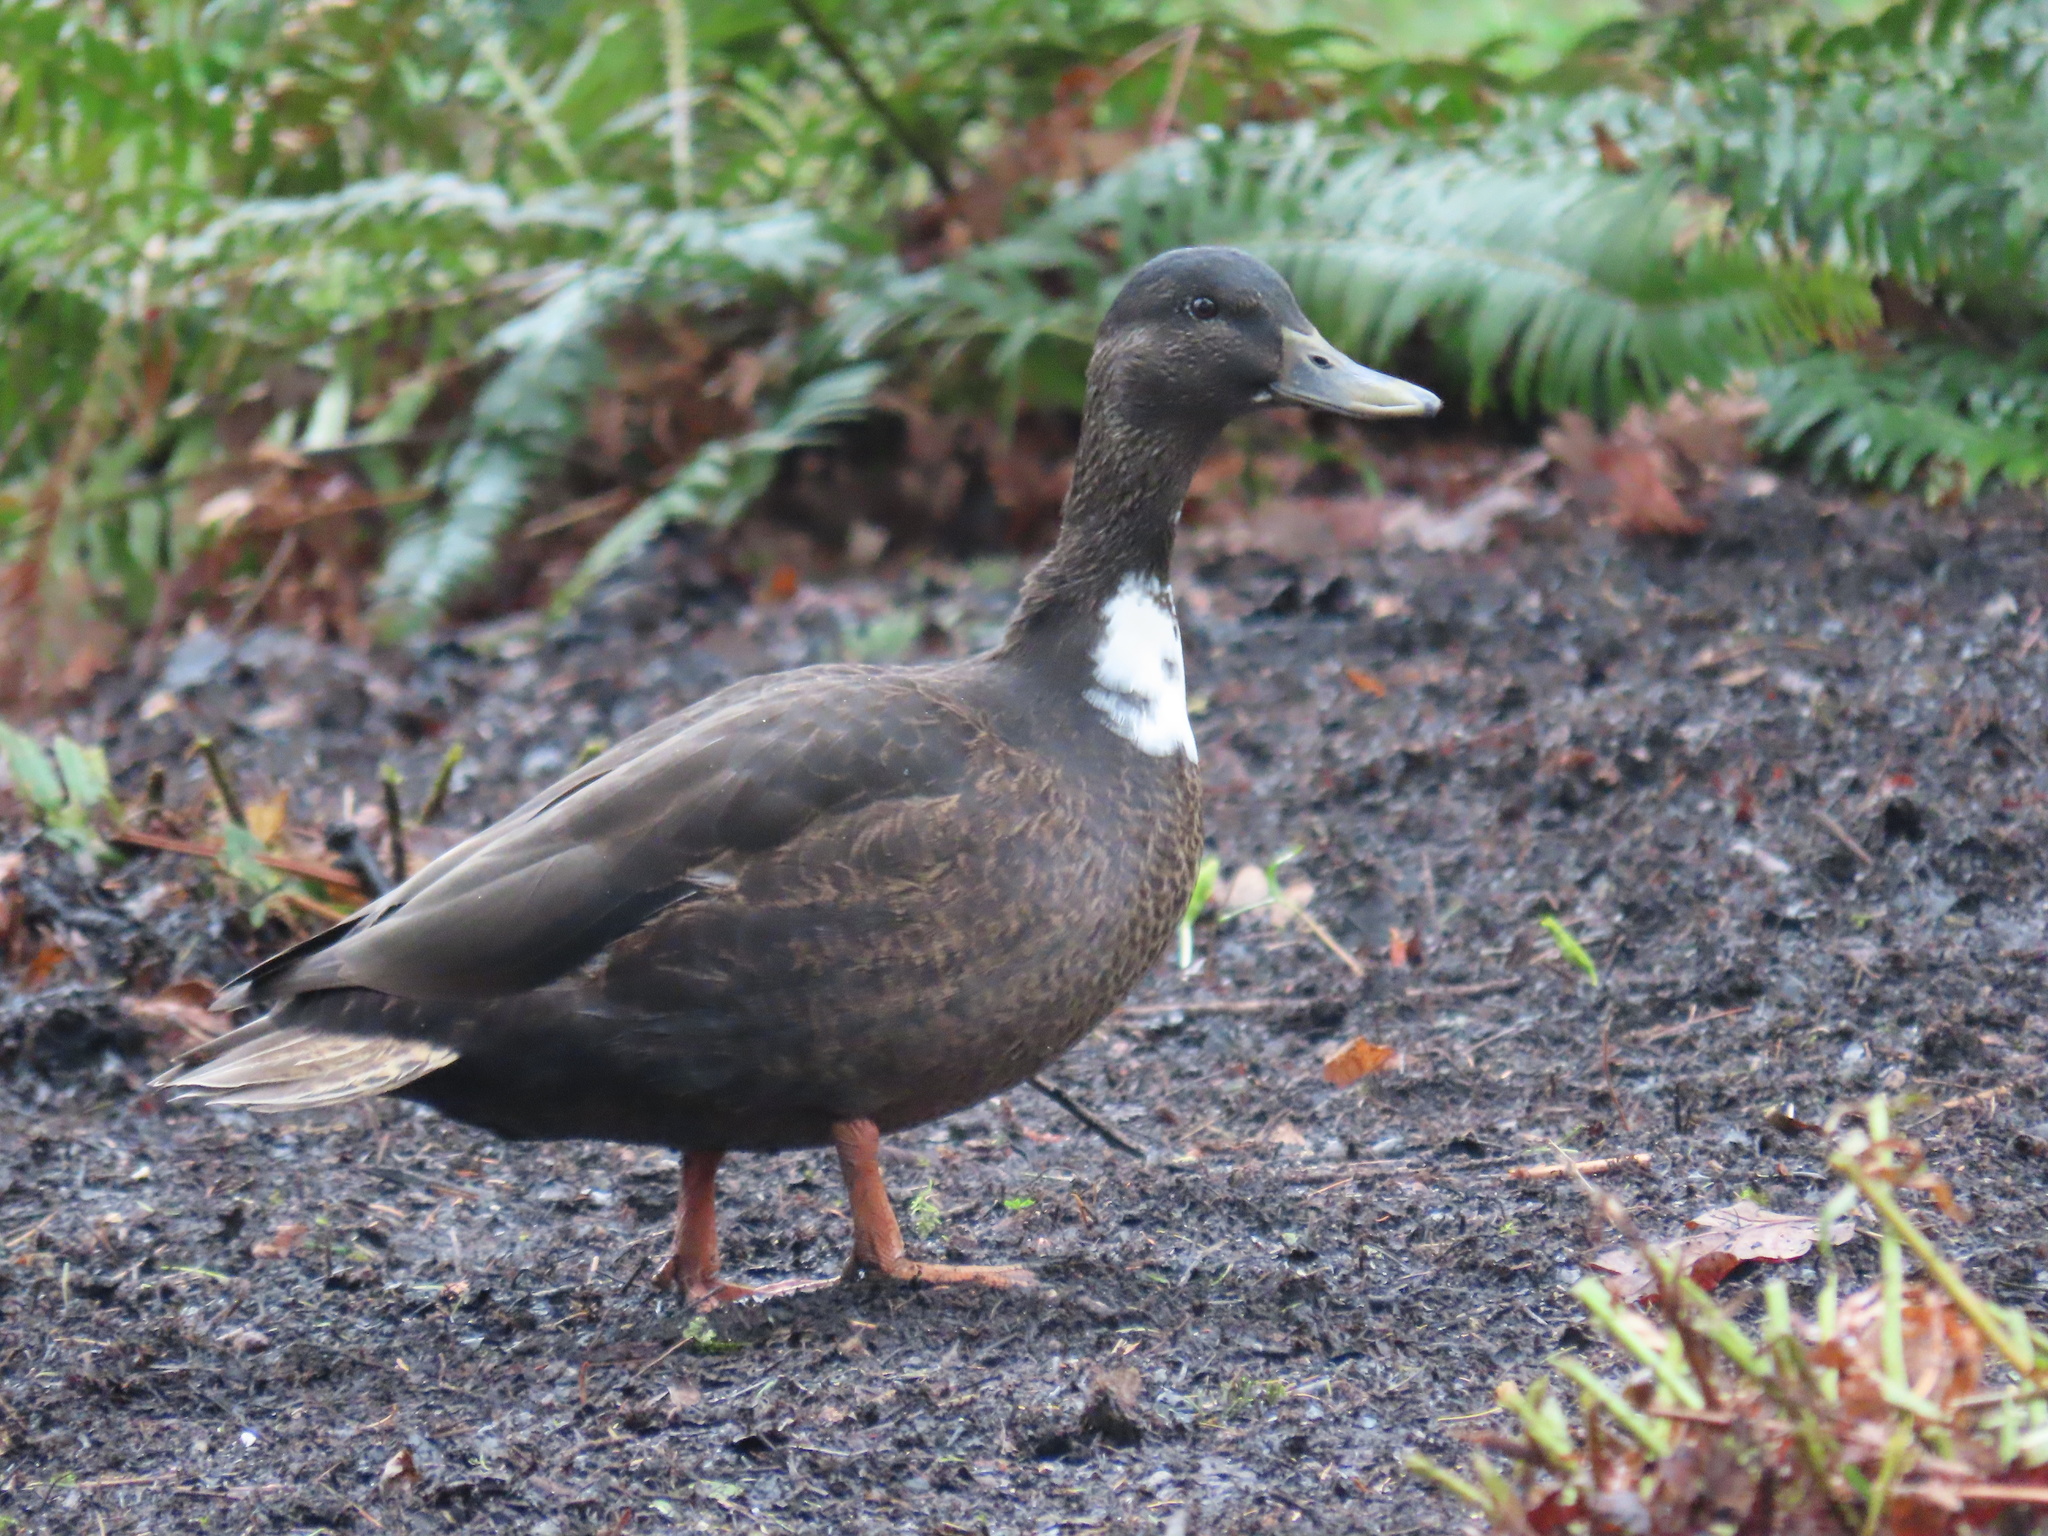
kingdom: Animalia
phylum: Chordata
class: Aves
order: Anseriformes
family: Anatidae
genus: Anas
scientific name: Anas platyrhynchos
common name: Mallard
